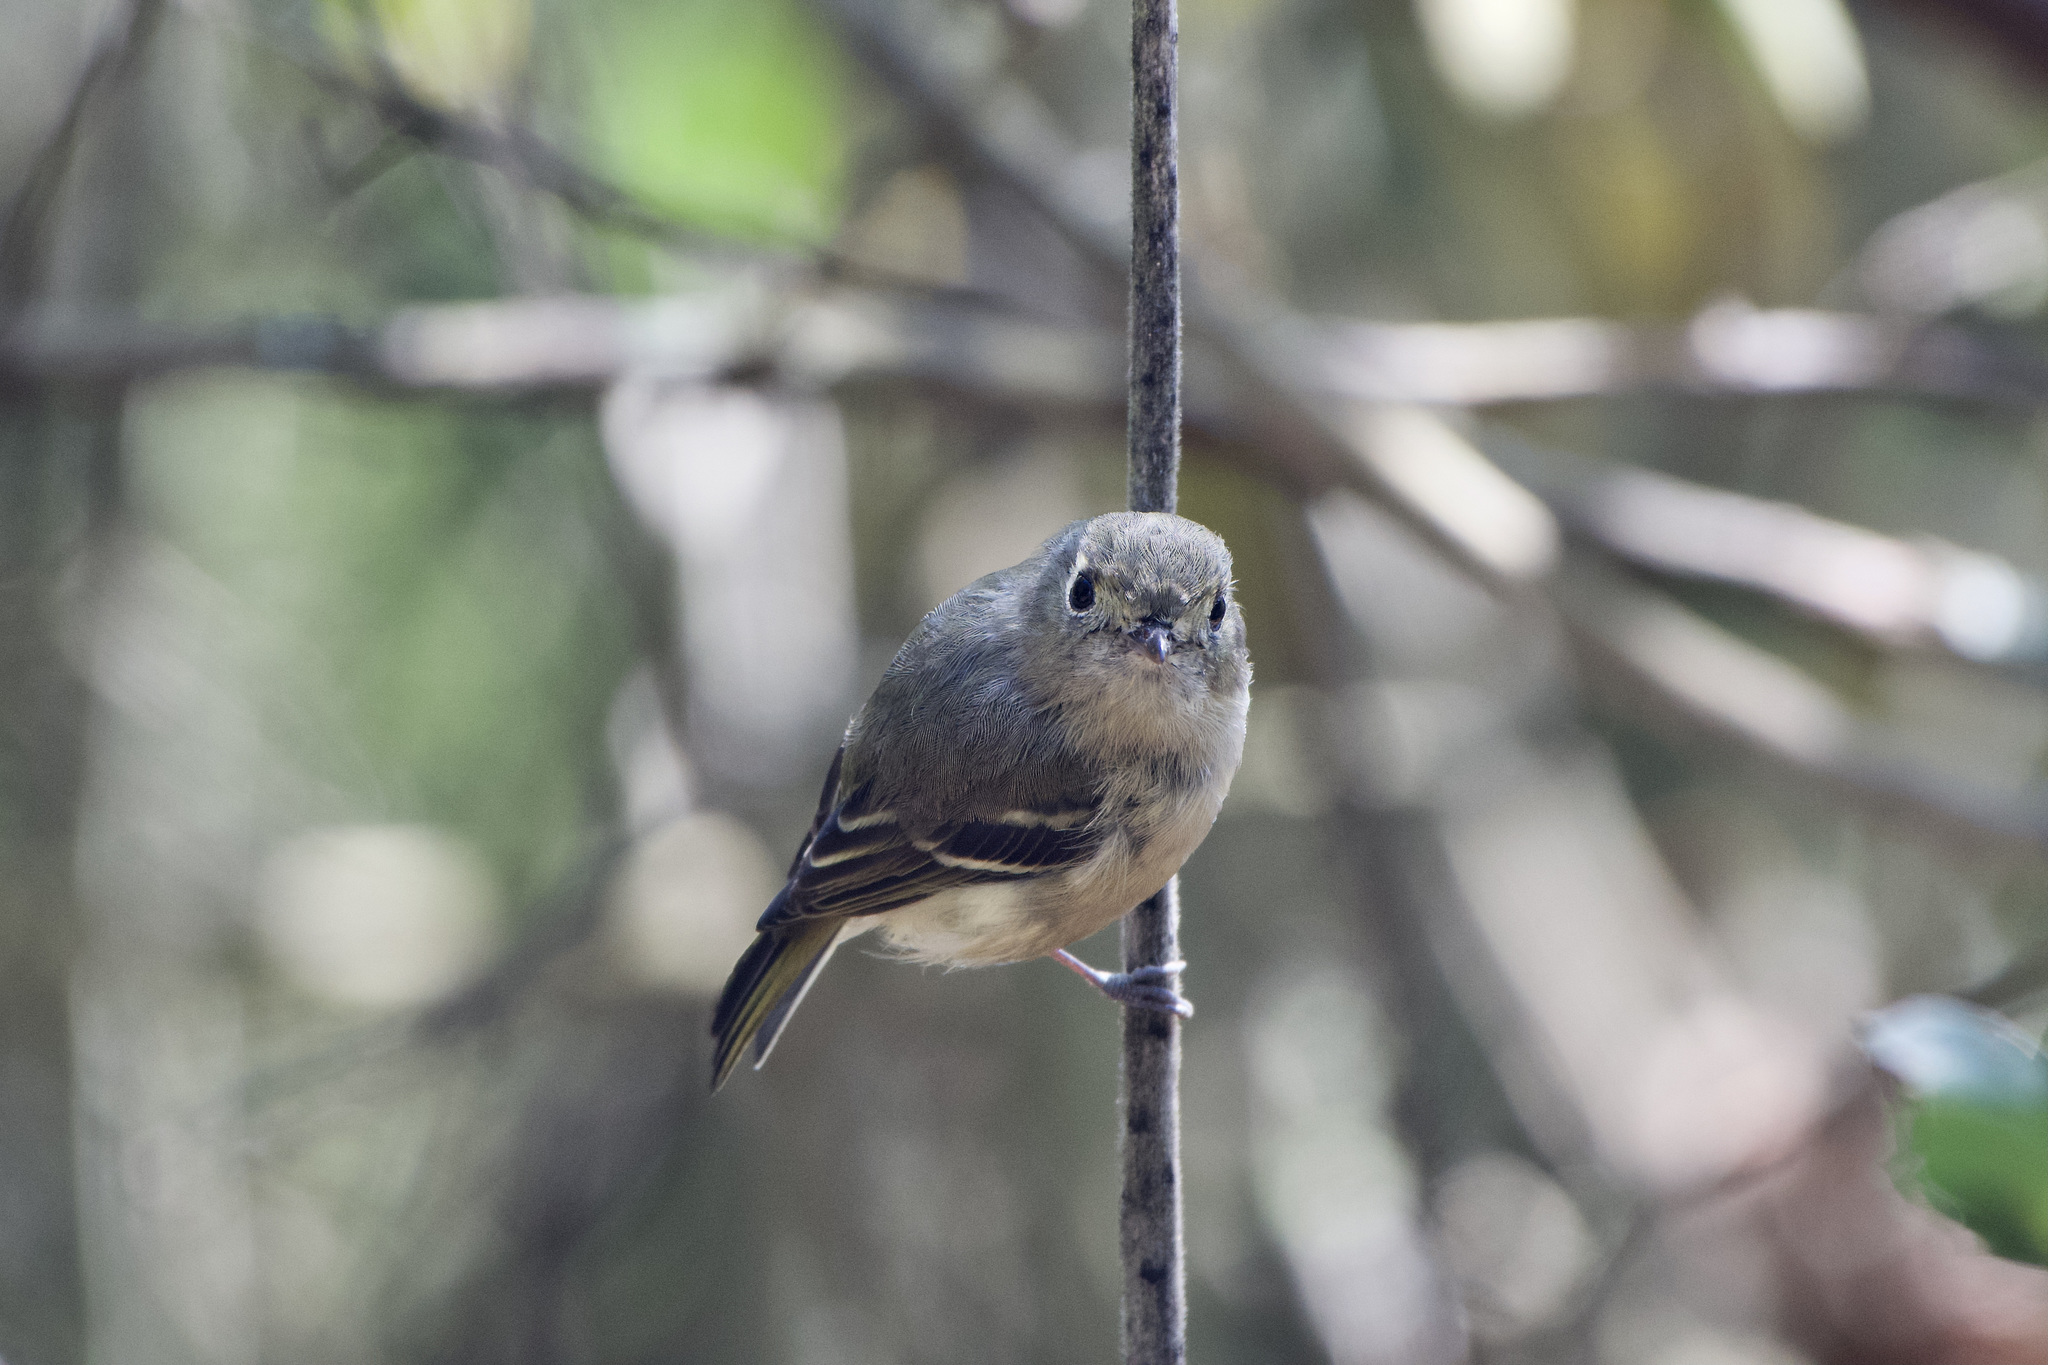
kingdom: Animalia
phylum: Chordata
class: Aves
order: Passeriformes
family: Vireonidae
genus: Vireo
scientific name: Vireo huttoni
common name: Hutton's vireo
